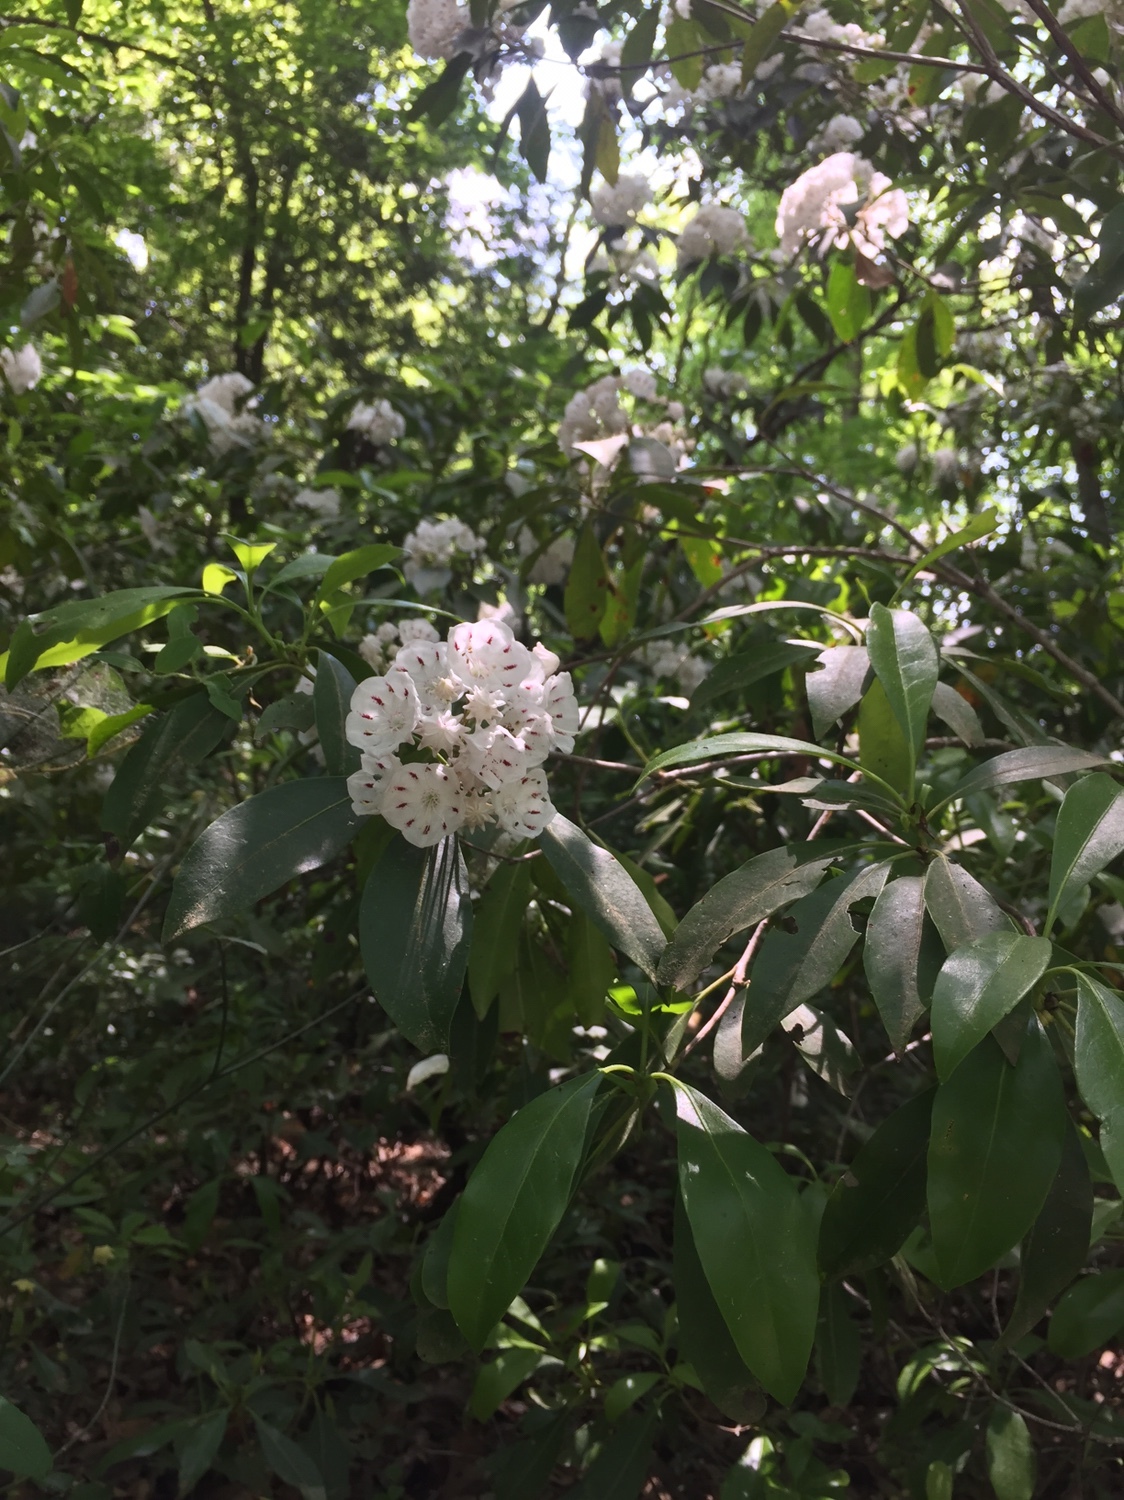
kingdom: Plantae
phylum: Tracheophyta
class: Magnoliopsida
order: Ericales
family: Ericaceae
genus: Kalmia
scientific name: Kalmia latifolia
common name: Mountain-laurel
